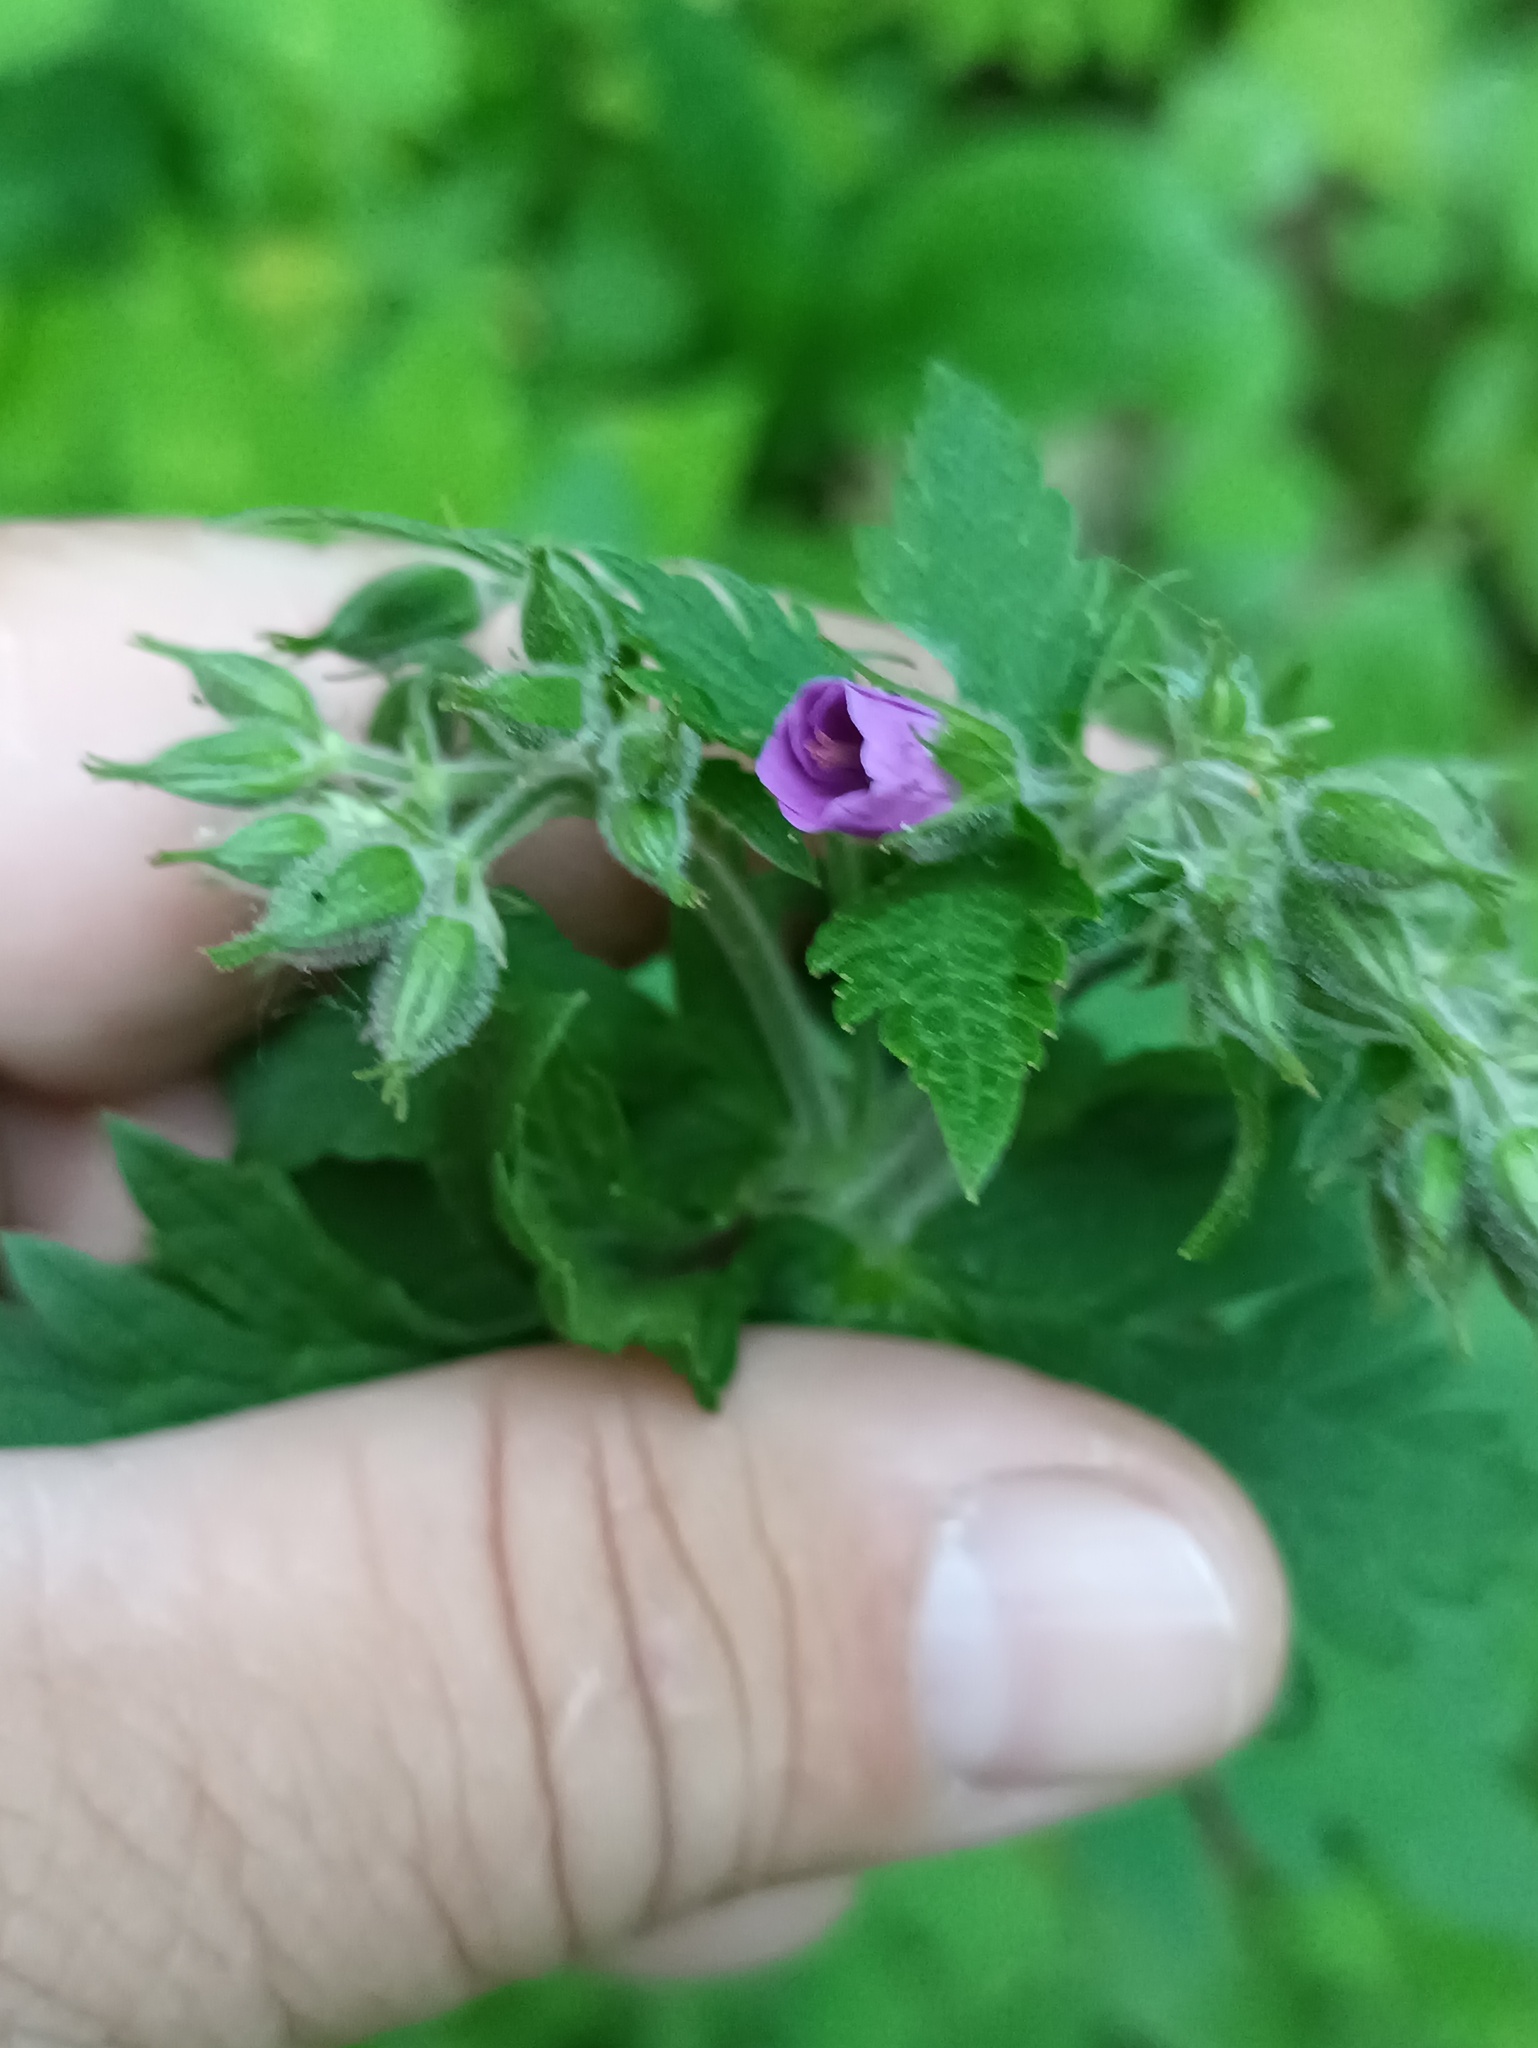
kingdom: Plantae
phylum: Tracheophyta
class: Magnoliopsida
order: Geraniales
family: Geraniaceae
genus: Geranium
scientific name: Geranium sylvaticum
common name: Wood crane's-bill
